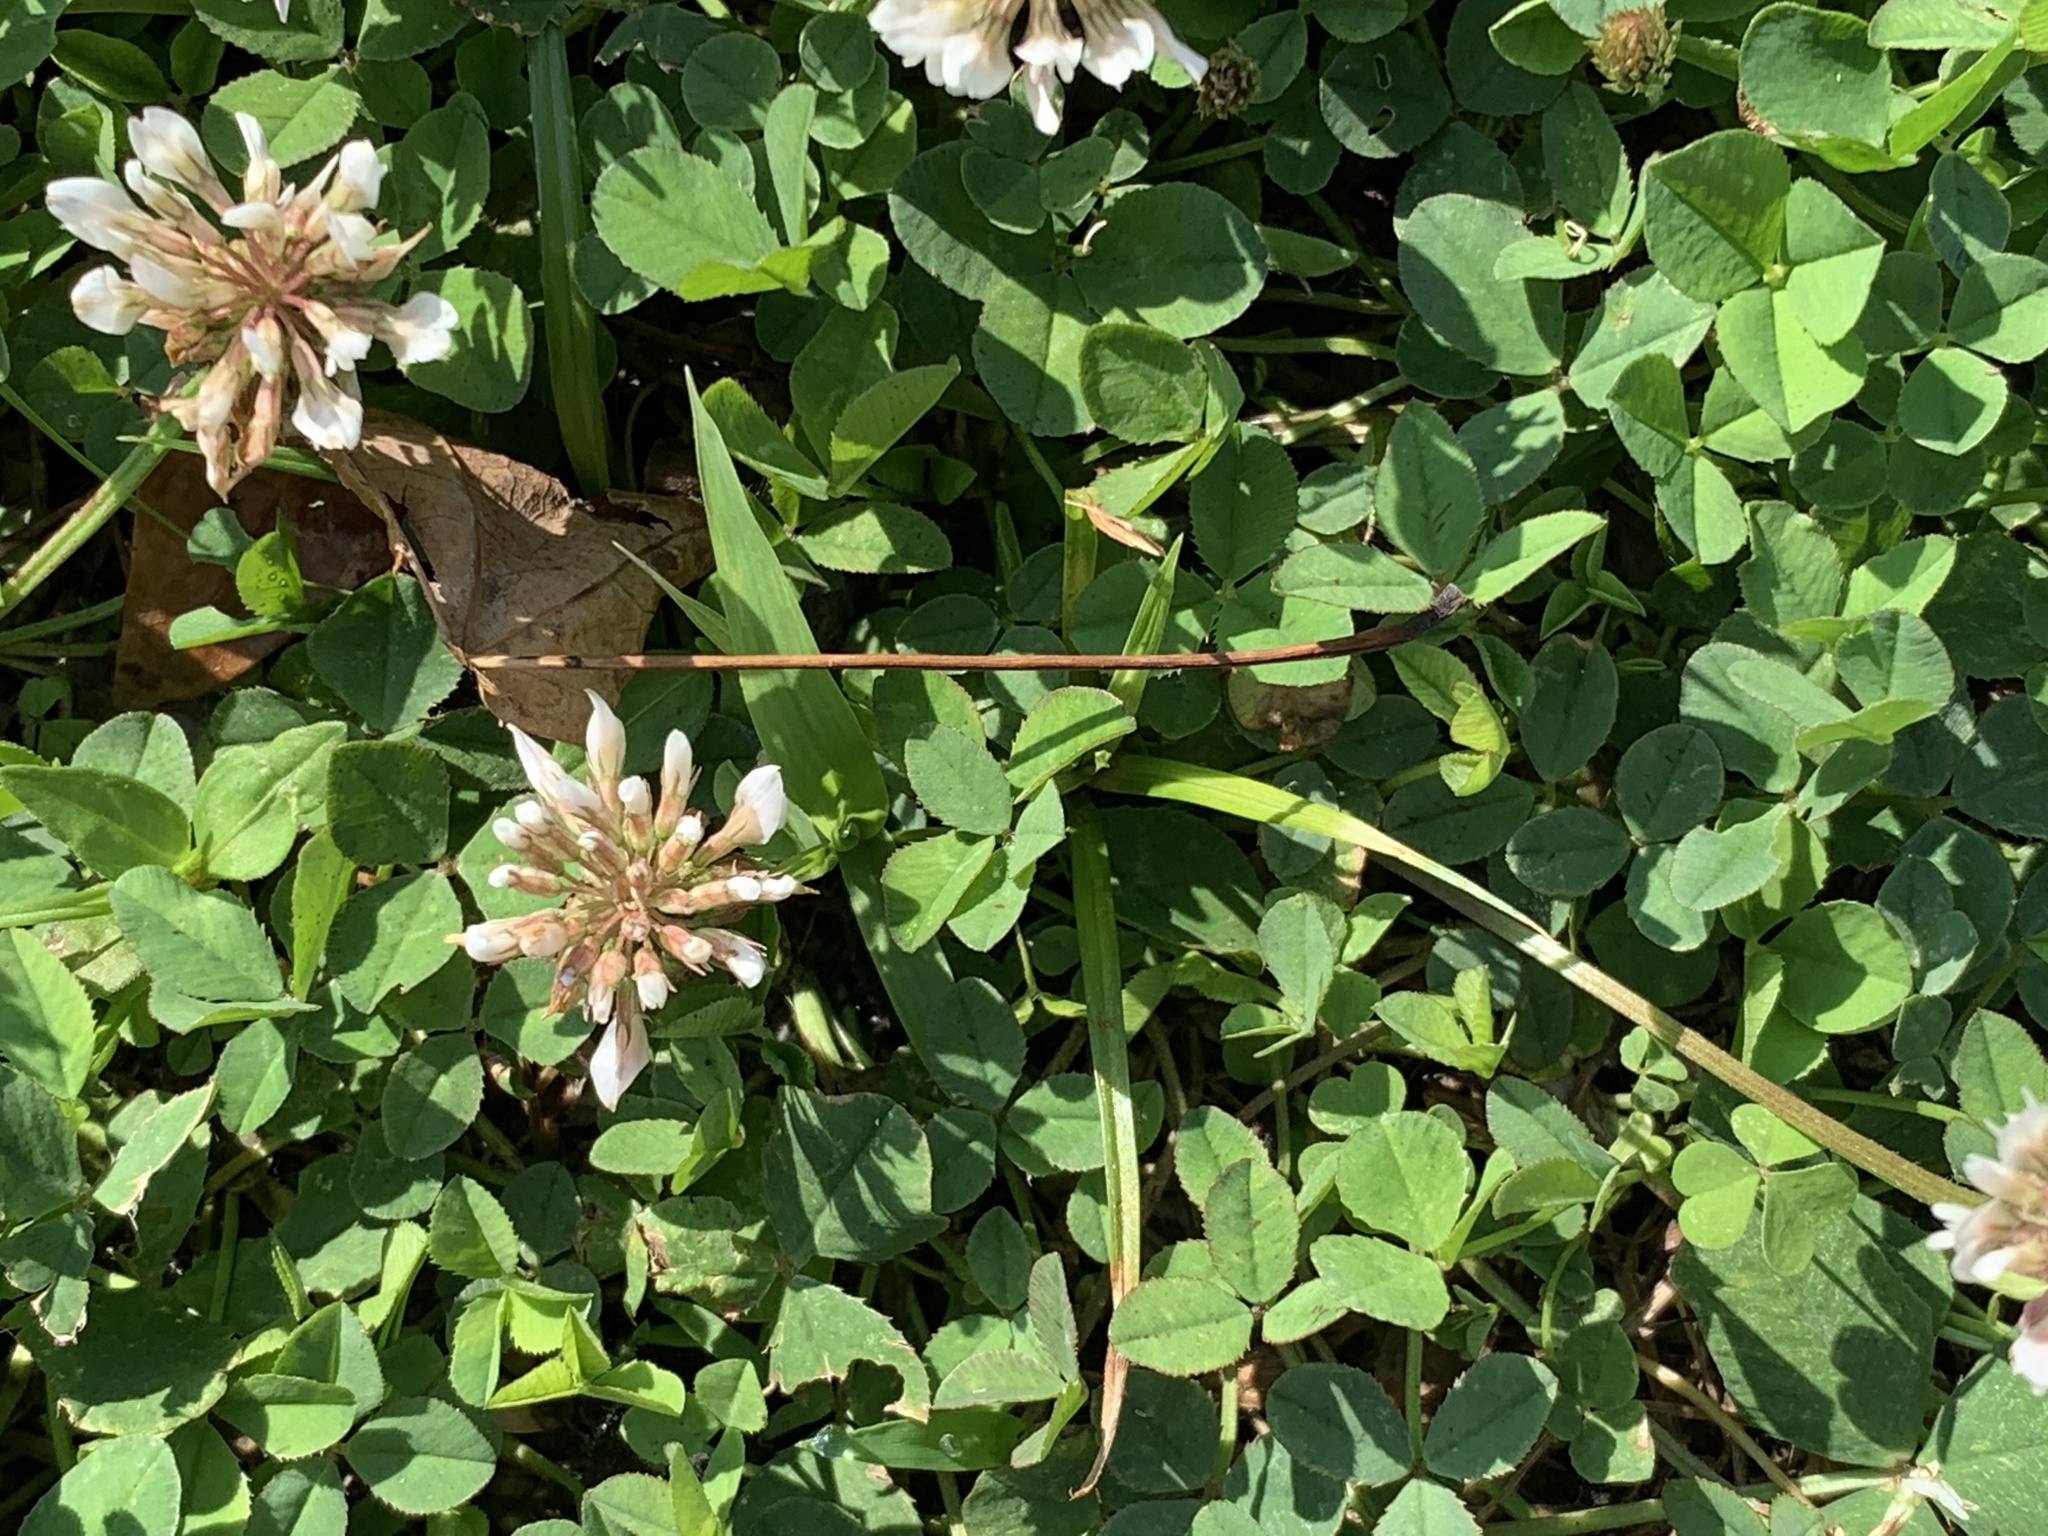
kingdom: Plantae
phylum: Tracheophyta
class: Magnoliopsida
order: Fabales
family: Fabaceae
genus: Trifolium
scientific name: Trifolium repens
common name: White clover
